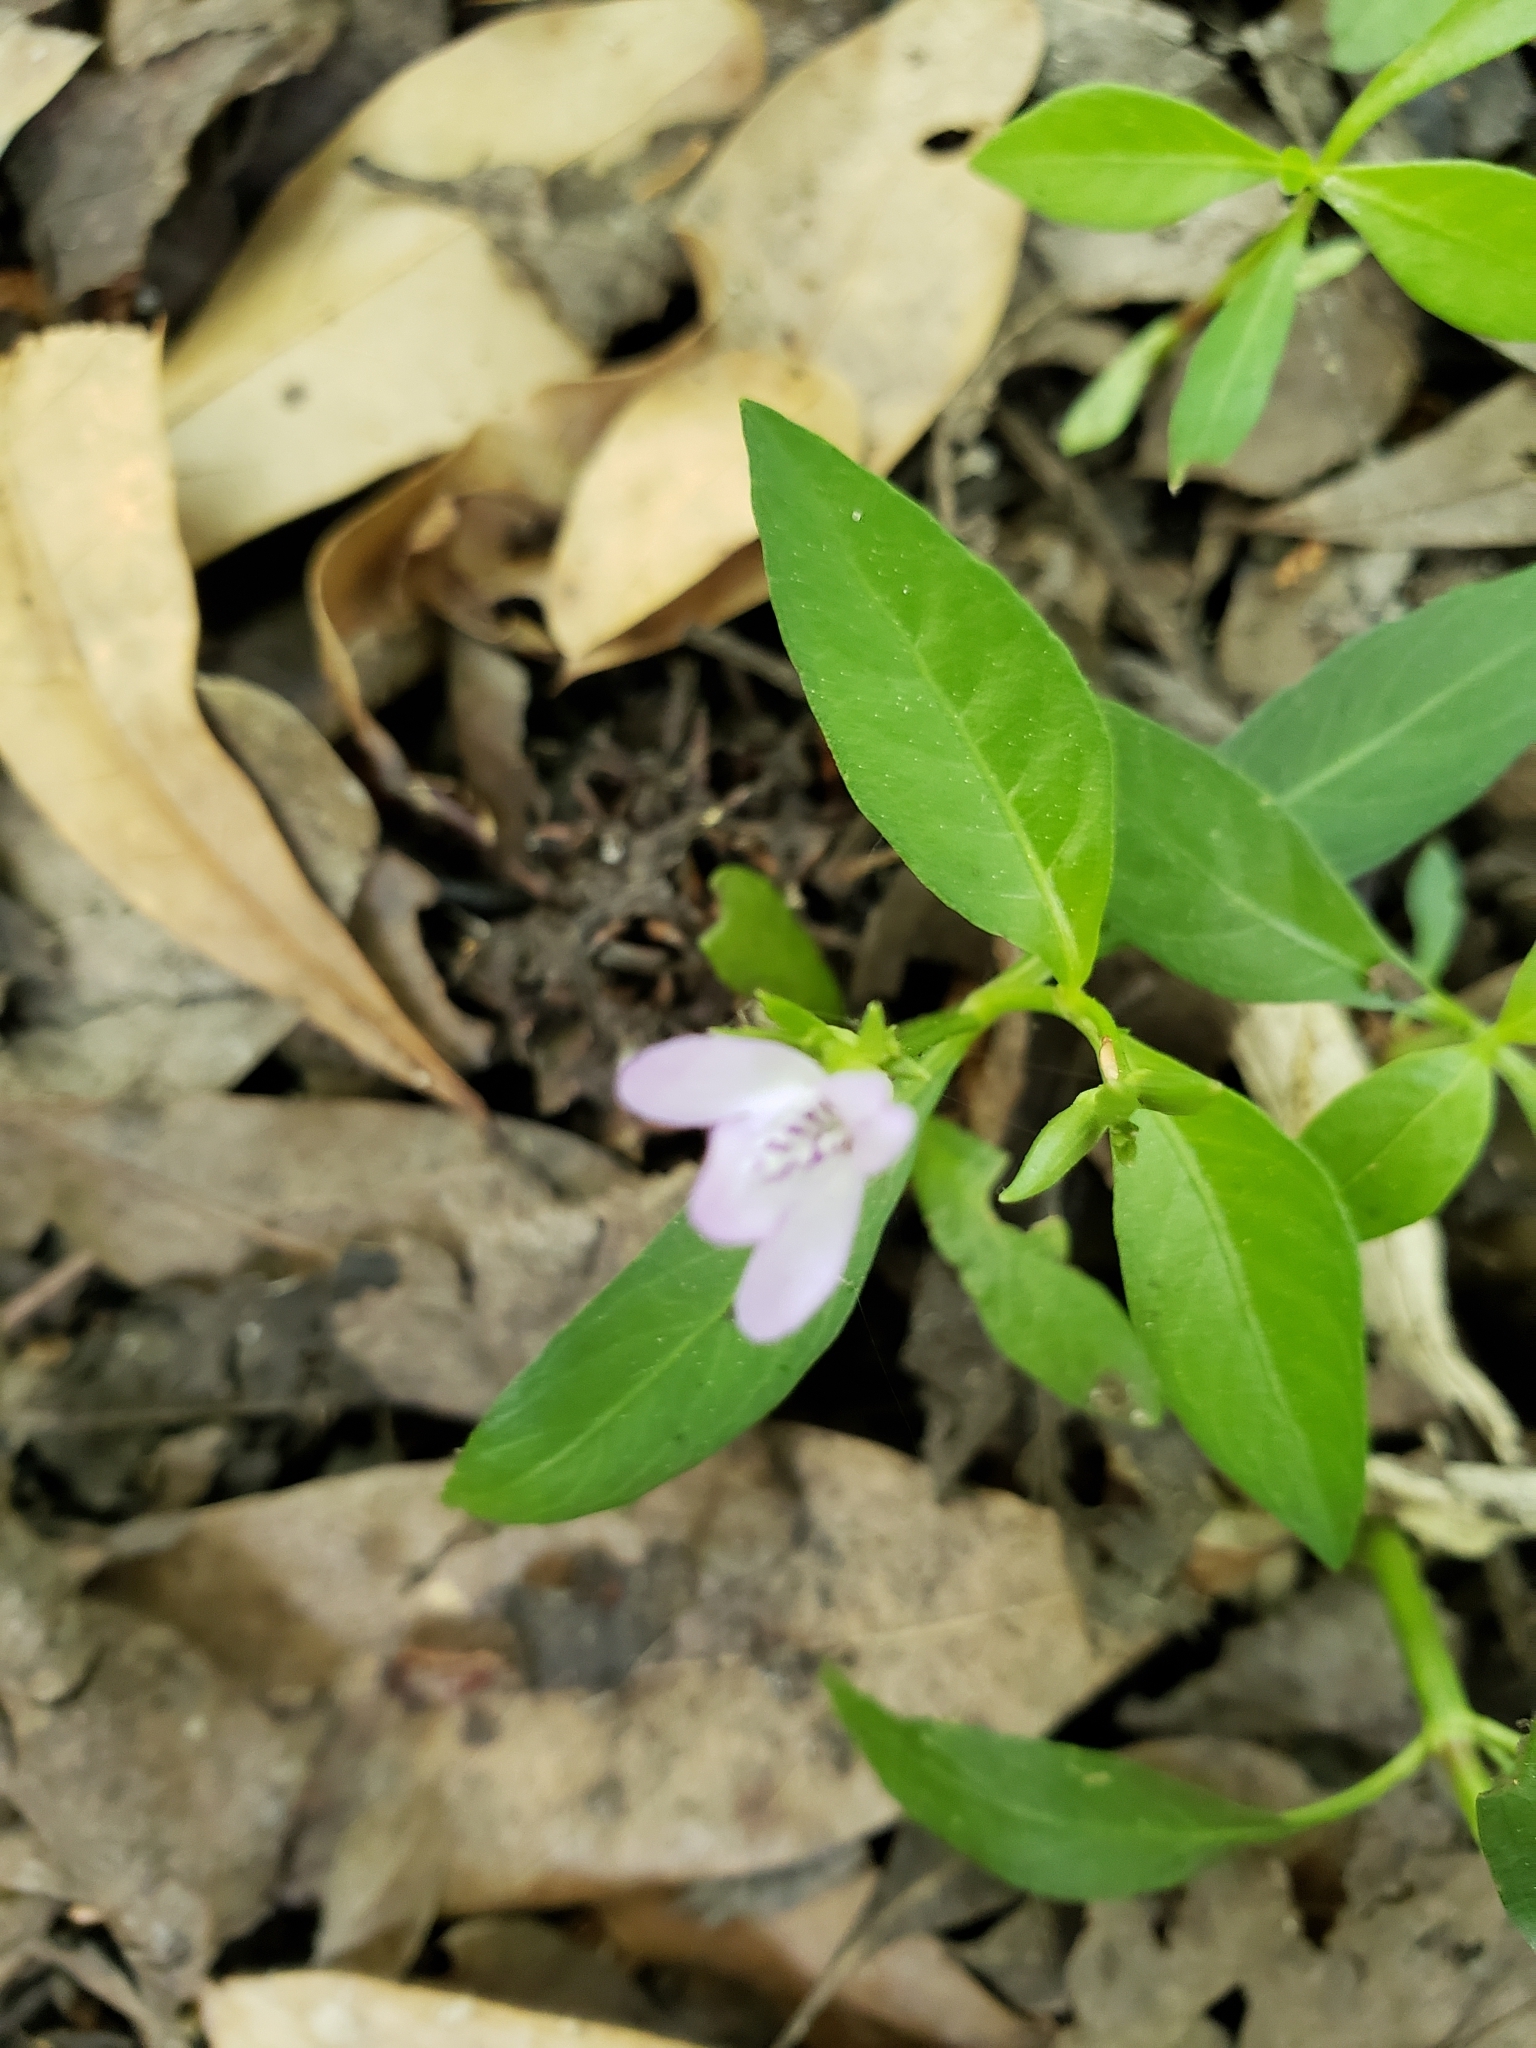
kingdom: Plantae
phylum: Tracheophyta
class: Magnoliopsida
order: Lamiales
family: Acanthaceae
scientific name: Acanthaceae
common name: Acanthaceae
